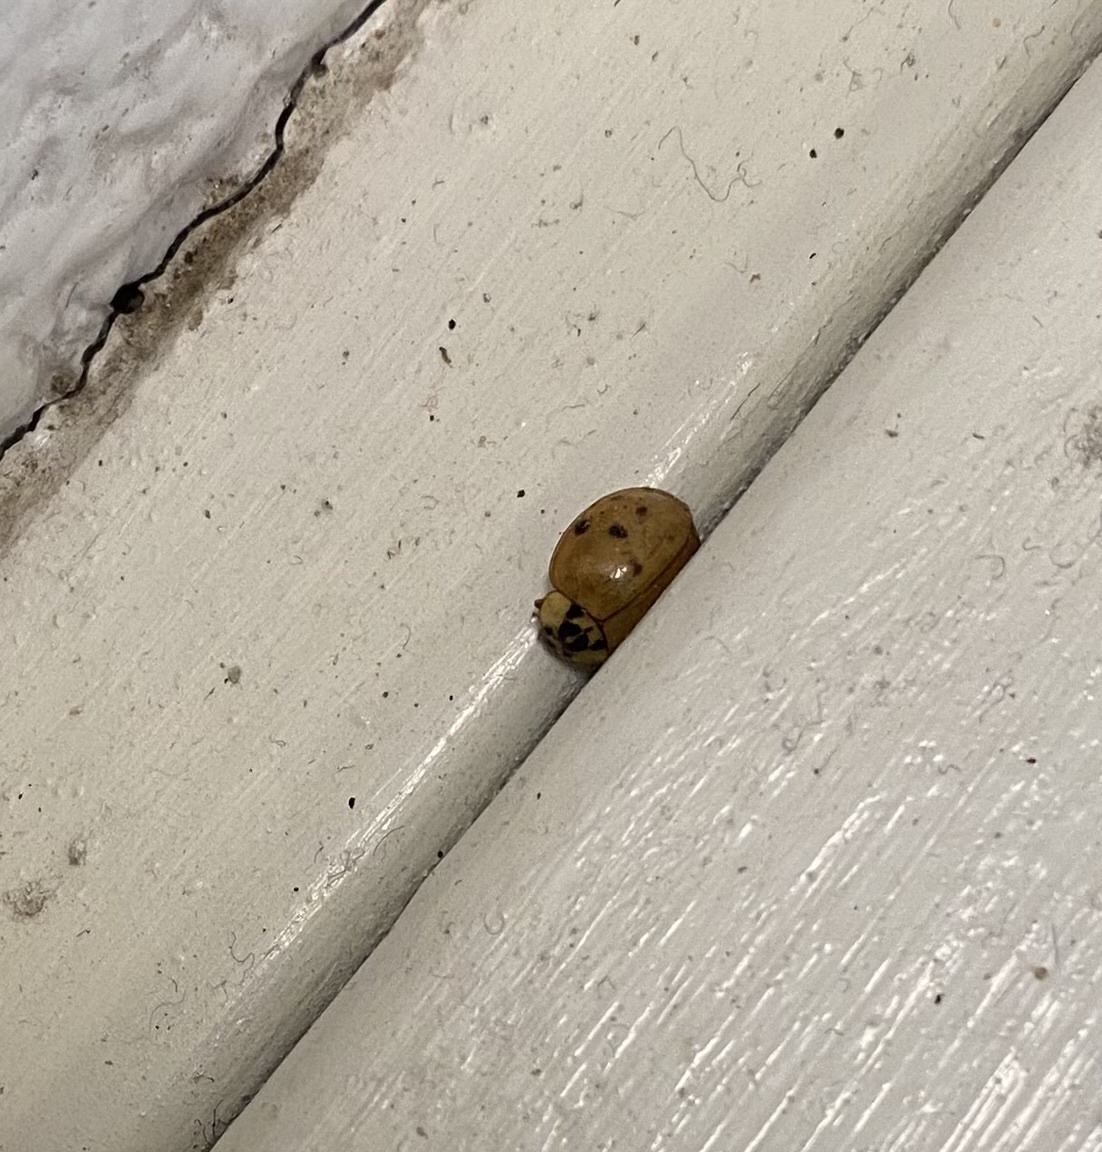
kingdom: Animalia
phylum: Arthropoda
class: Insecta
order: Coleoptera
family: Coccinellidae
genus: Harmonia
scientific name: Harmonia axyridis
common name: Harlequin ladybird
